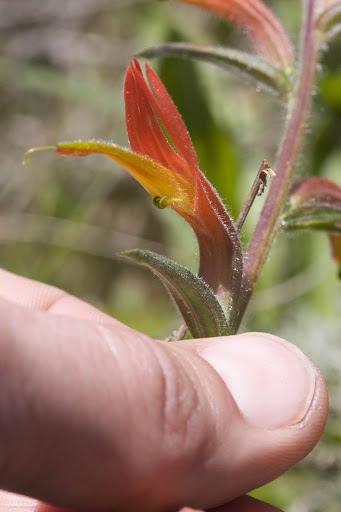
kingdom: Plantae
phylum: Tracheophyta
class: Magnoliopsida
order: Lamiales
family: Orobanchaceae
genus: Castilleja
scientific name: Castilleja subinclusa
